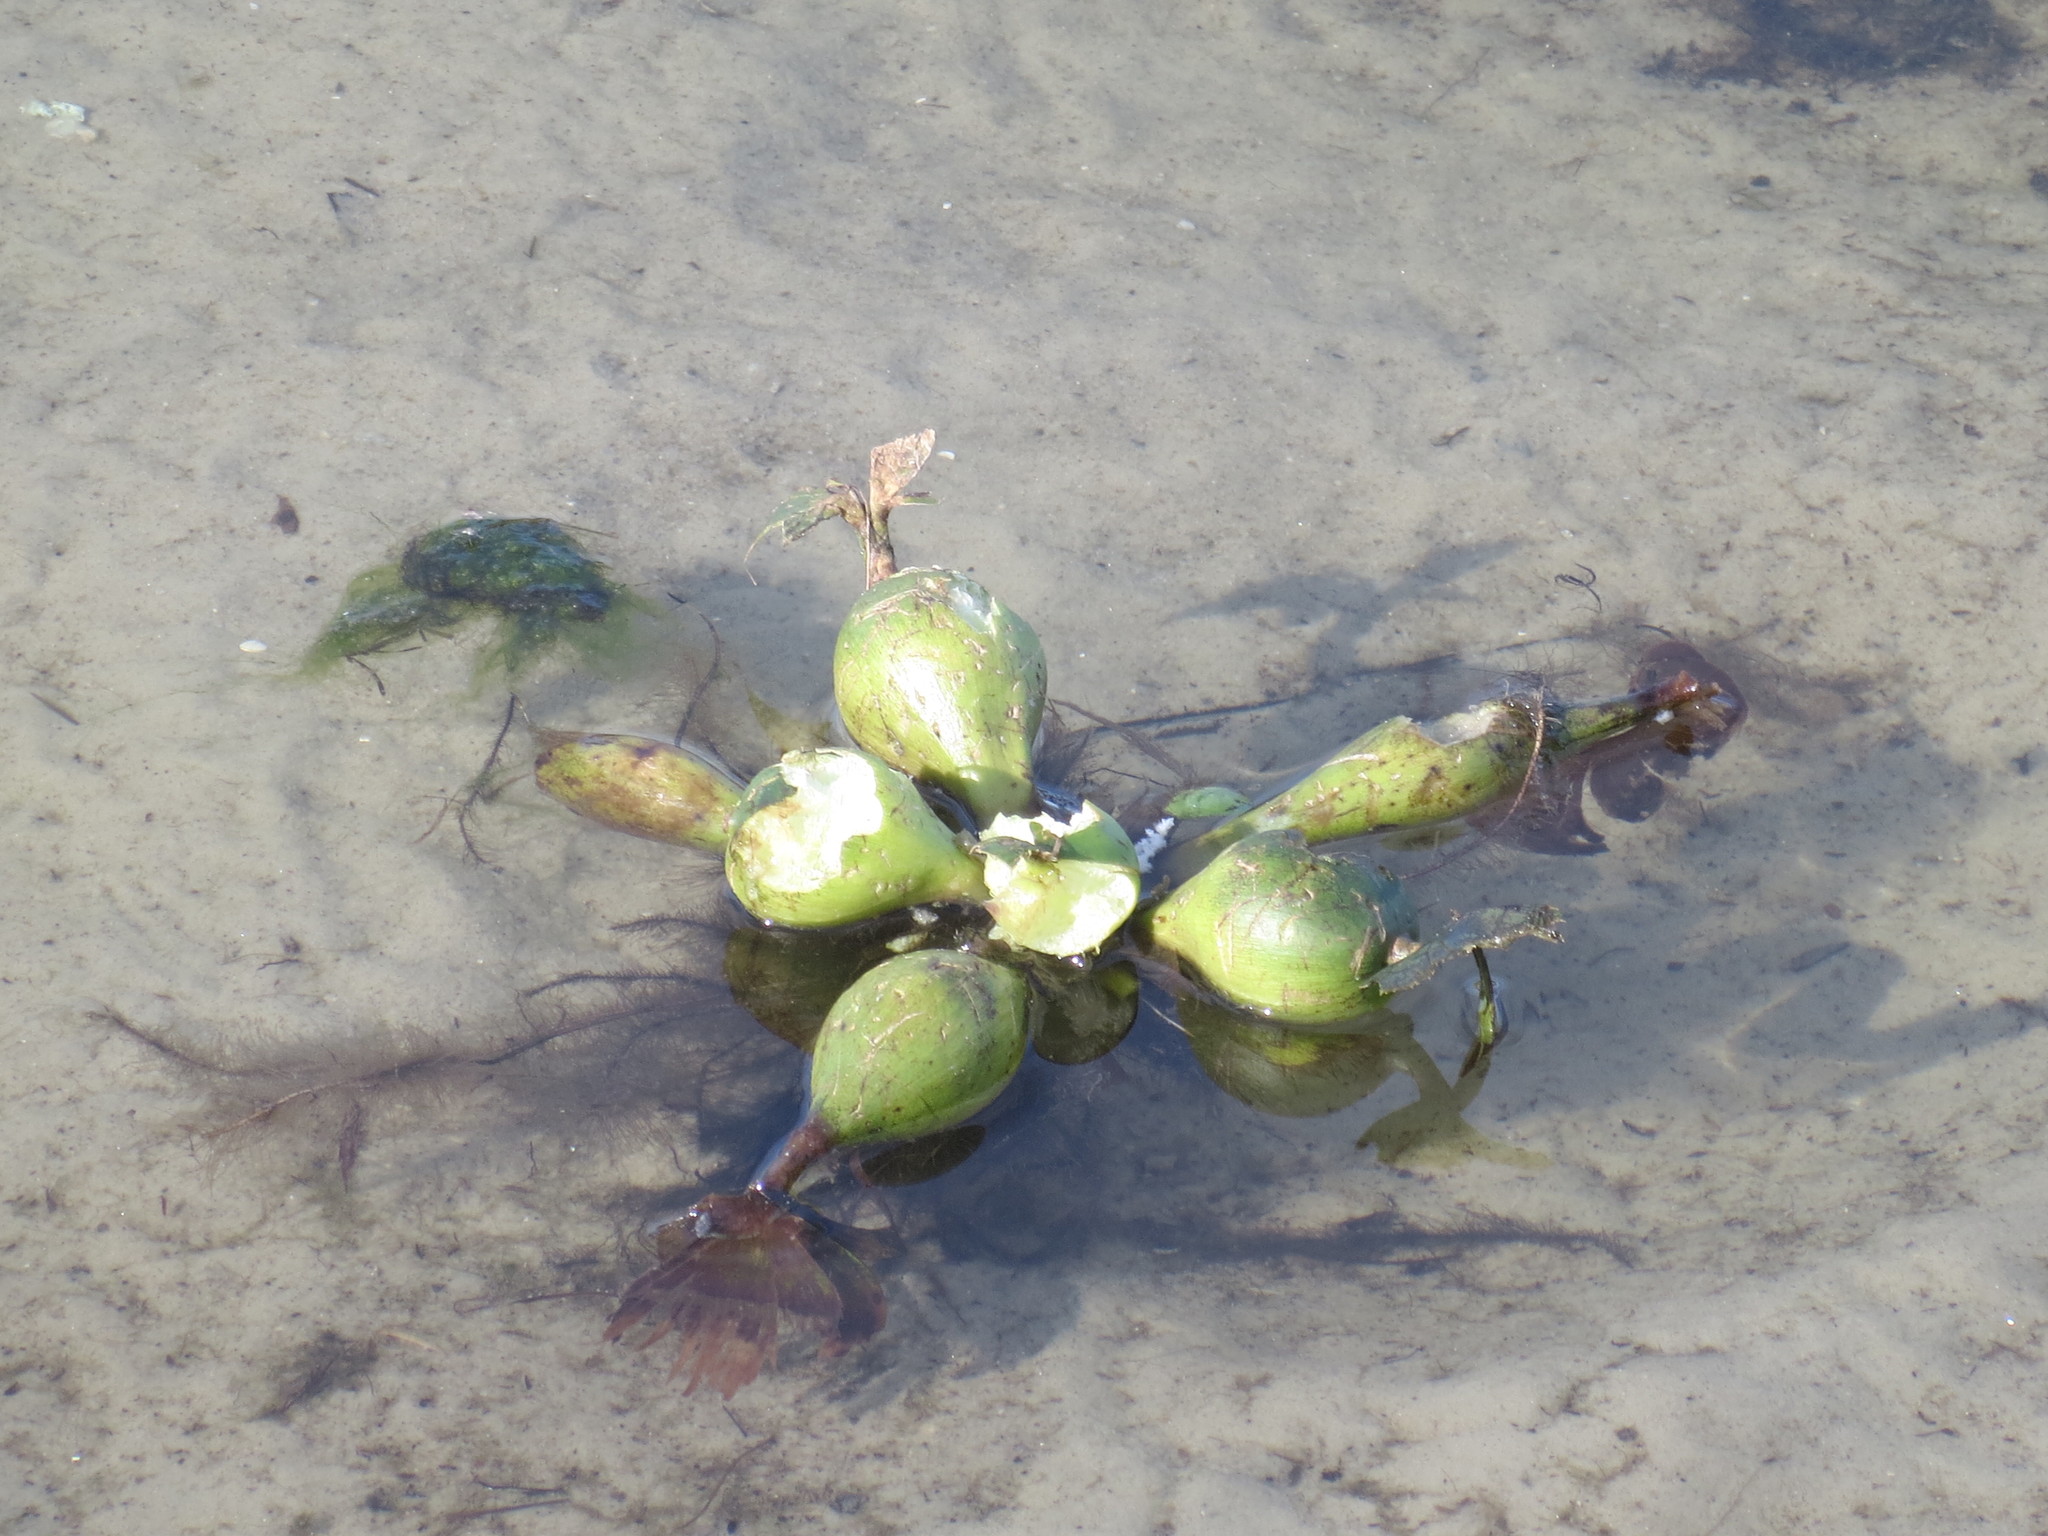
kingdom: Plantae
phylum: Tracheophyta
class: Liliopsida
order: Commelinales
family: Pontederiaceae
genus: Pontederia
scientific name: Pontederia crassipes
